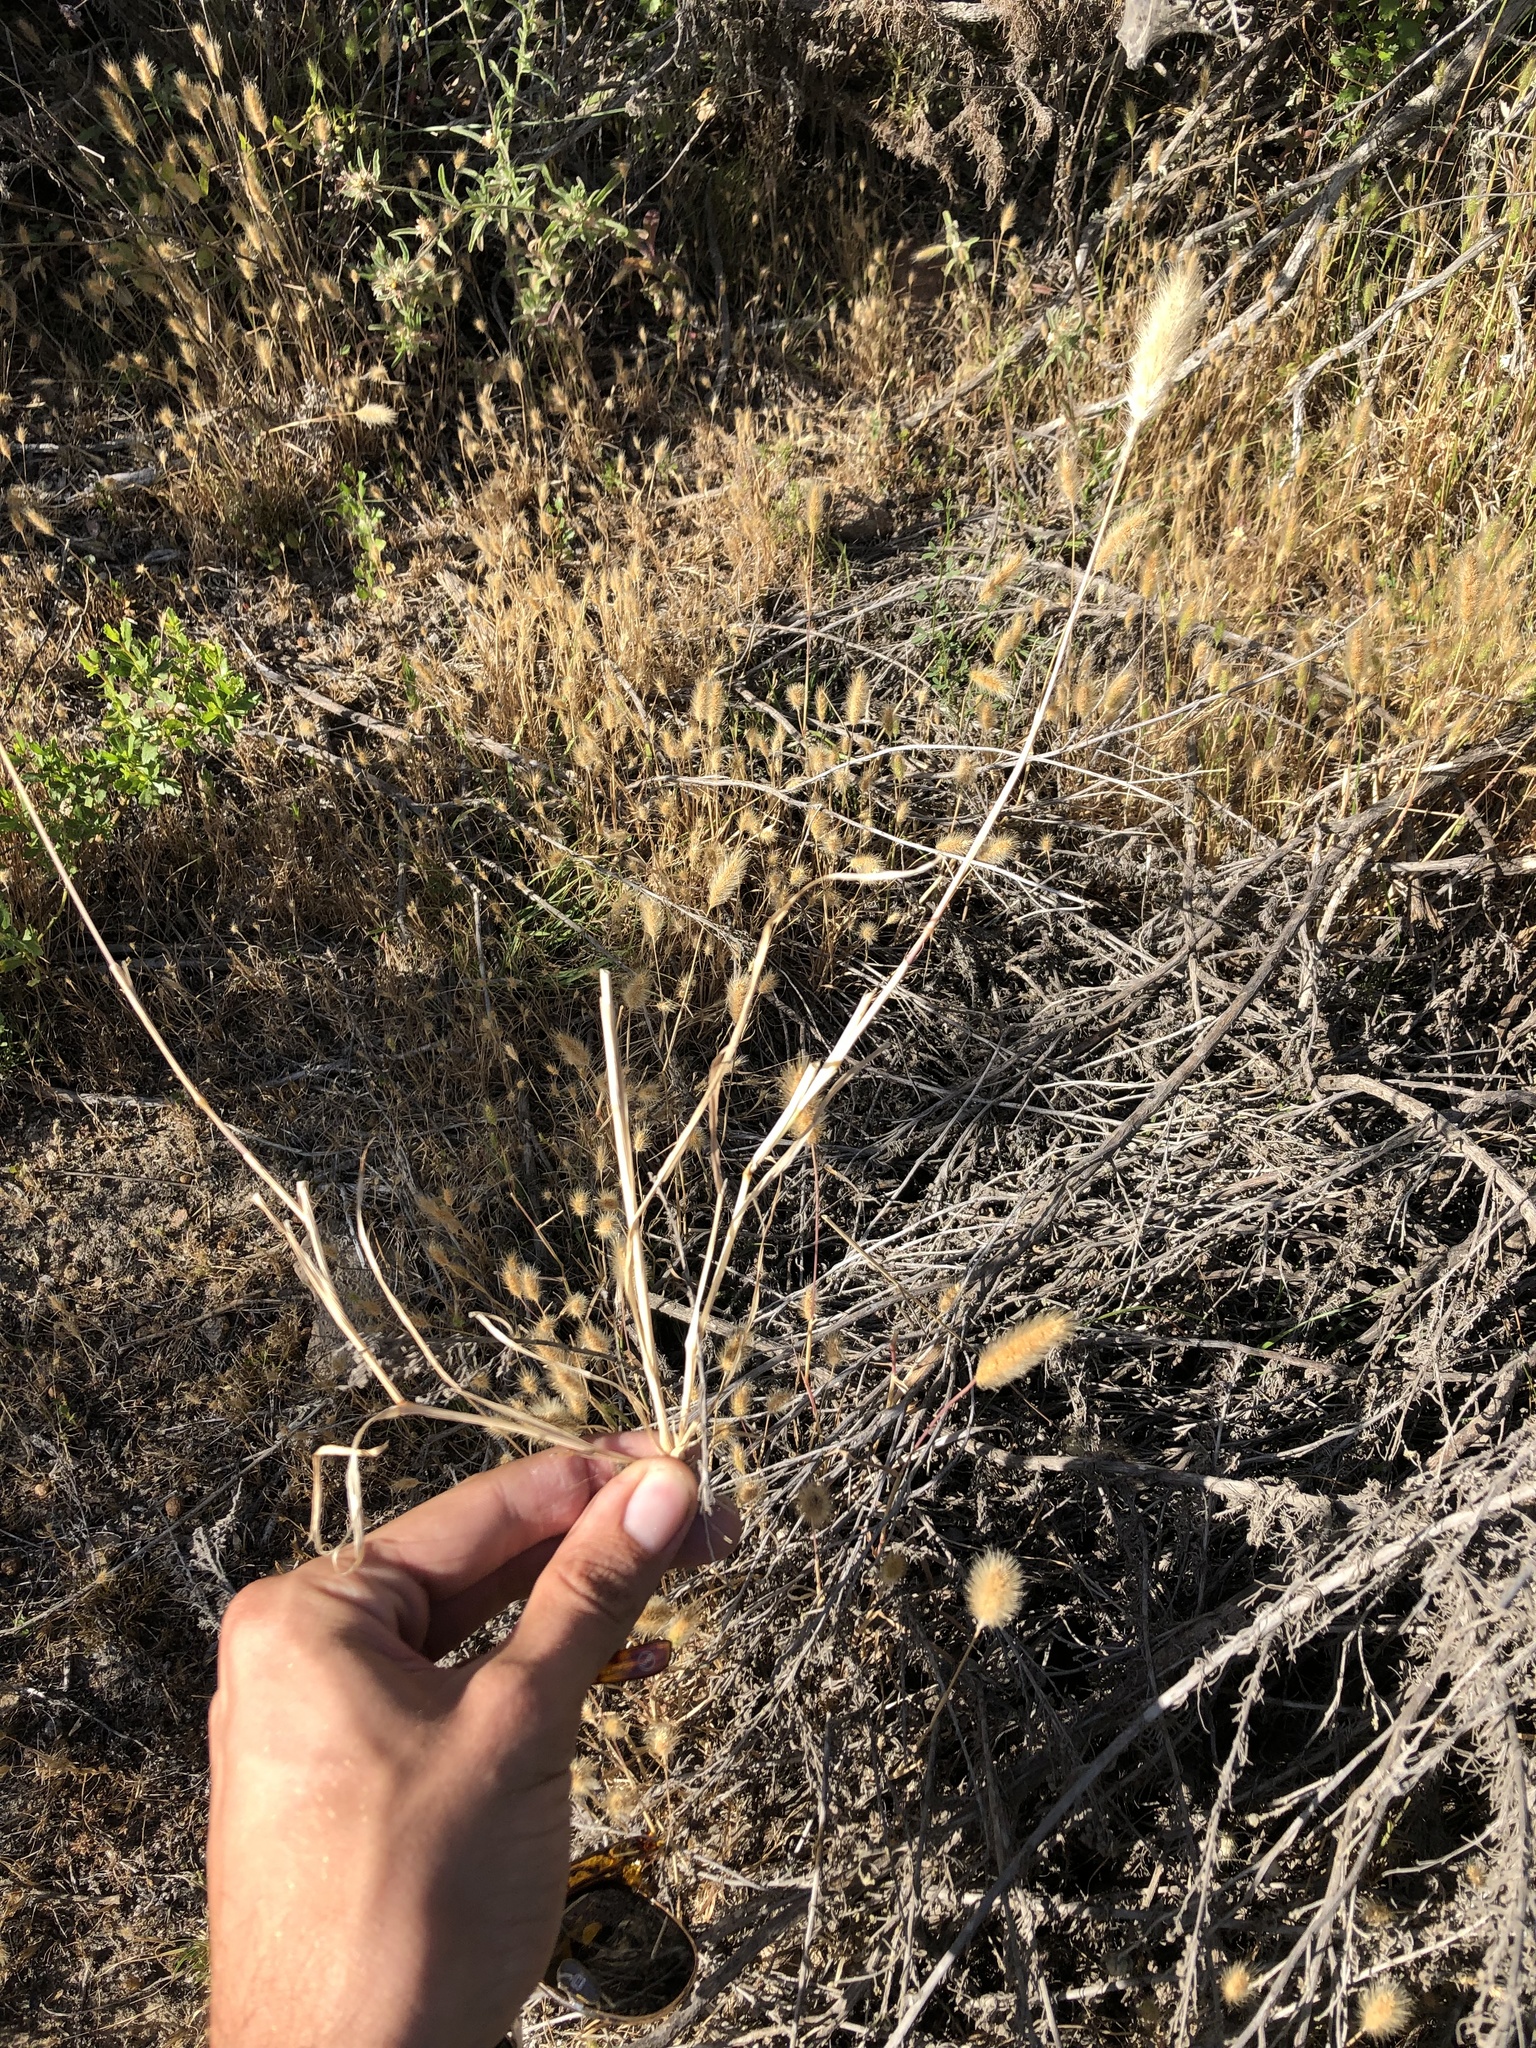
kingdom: Plantae
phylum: Tracheophyta
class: Liliopsida
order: Poales
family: Poaceae
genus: Polypogon
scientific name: Polypogon monspeliensis
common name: Annual rabbitsfoot grass
